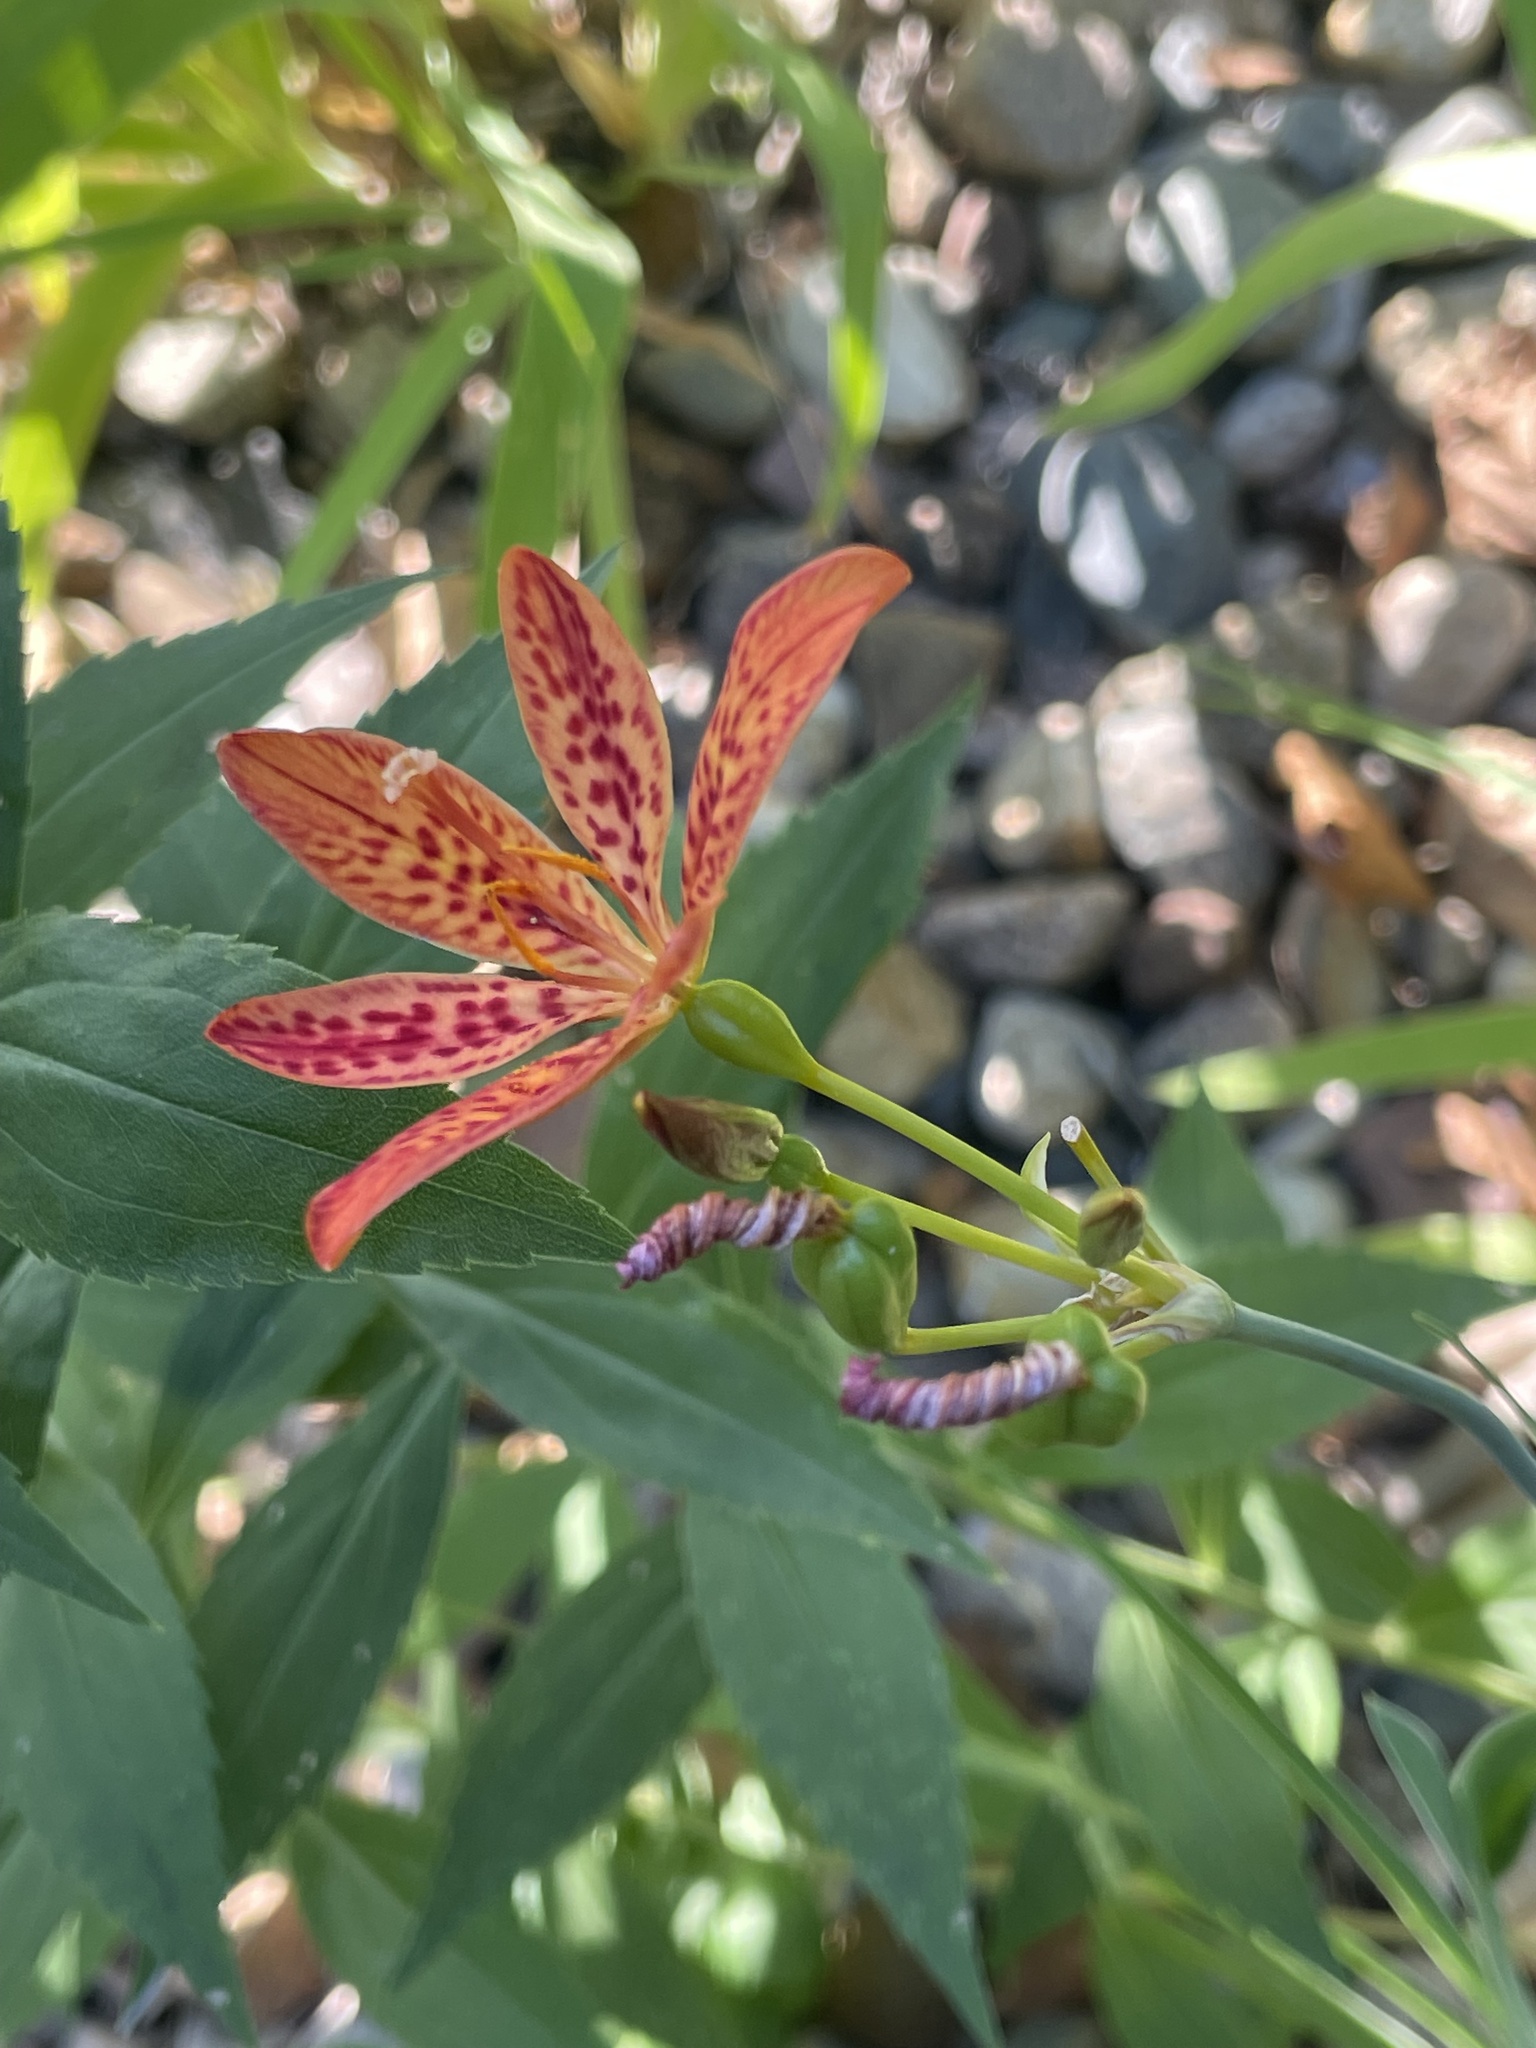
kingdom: Plantae
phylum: Tracheophyta
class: Liliopsida
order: Asparagales
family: Iridaceae
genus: Iris
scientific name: Iris domestica
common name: Belamcanda
